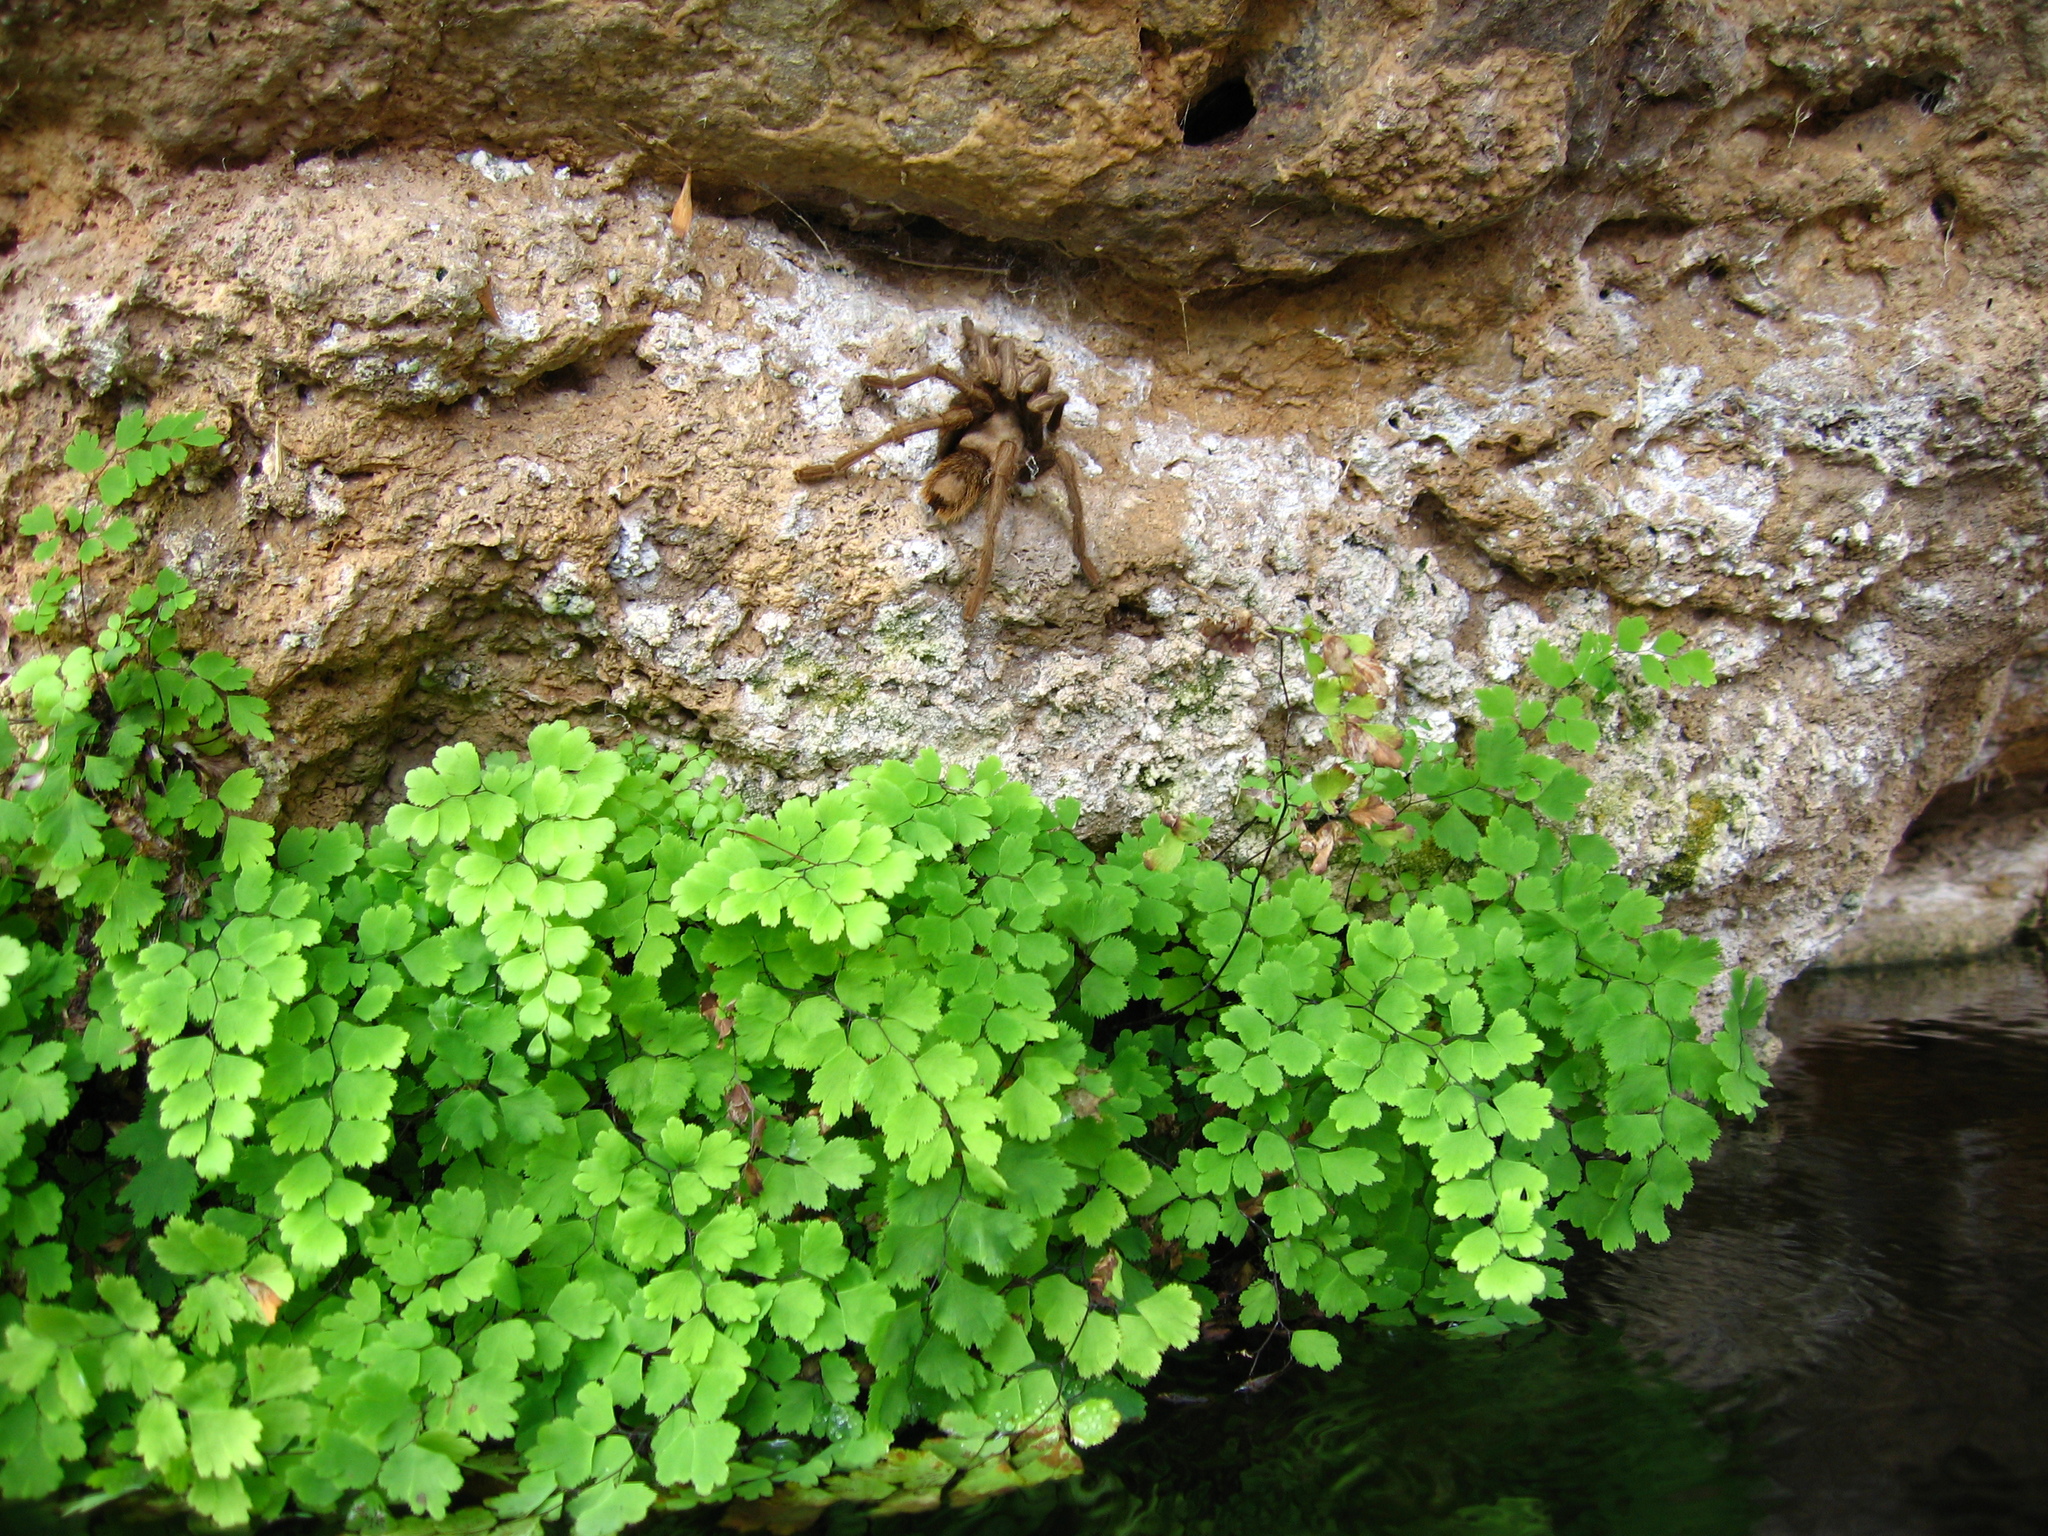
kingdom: Plantae
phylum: Tracheophyta
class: Polypodiopsida
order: Polypodiales
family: Pteridaceae
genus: Adiantum
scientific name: Adiantum capillus-veneris
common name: Maidenhair fern
